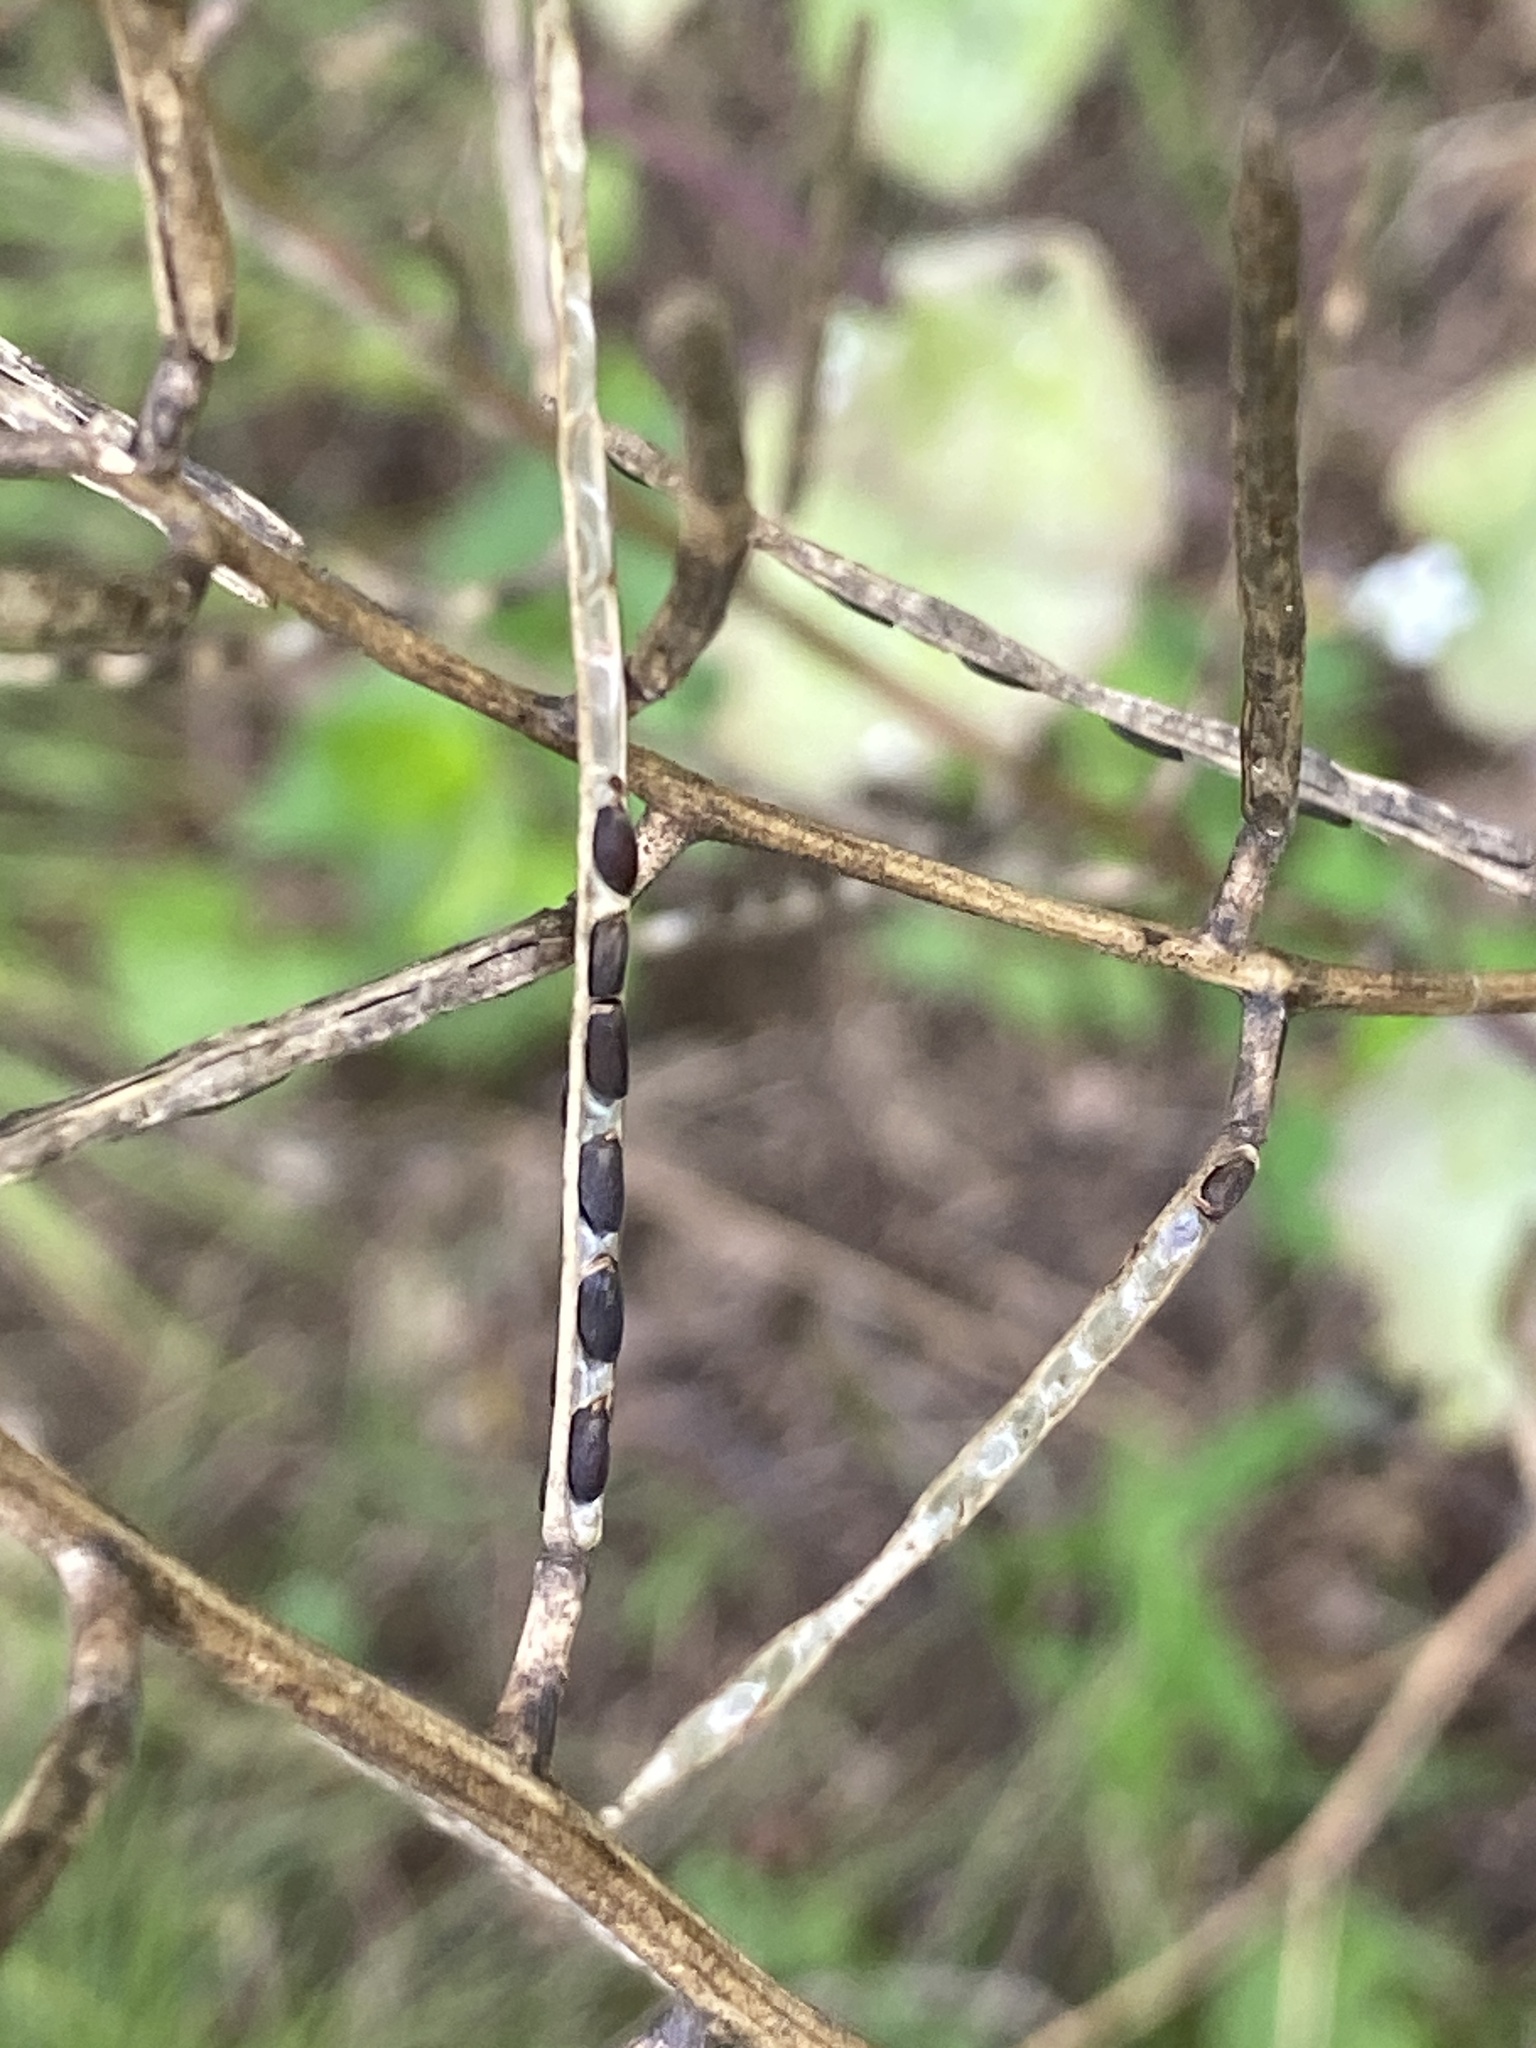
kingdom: Plantae
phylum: Tracheophyta
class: Magnoliopsida
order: Brassicales
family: Brassicaceae
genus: Alliaria
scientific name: Alliaria petiolata
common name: Garlic mustard
